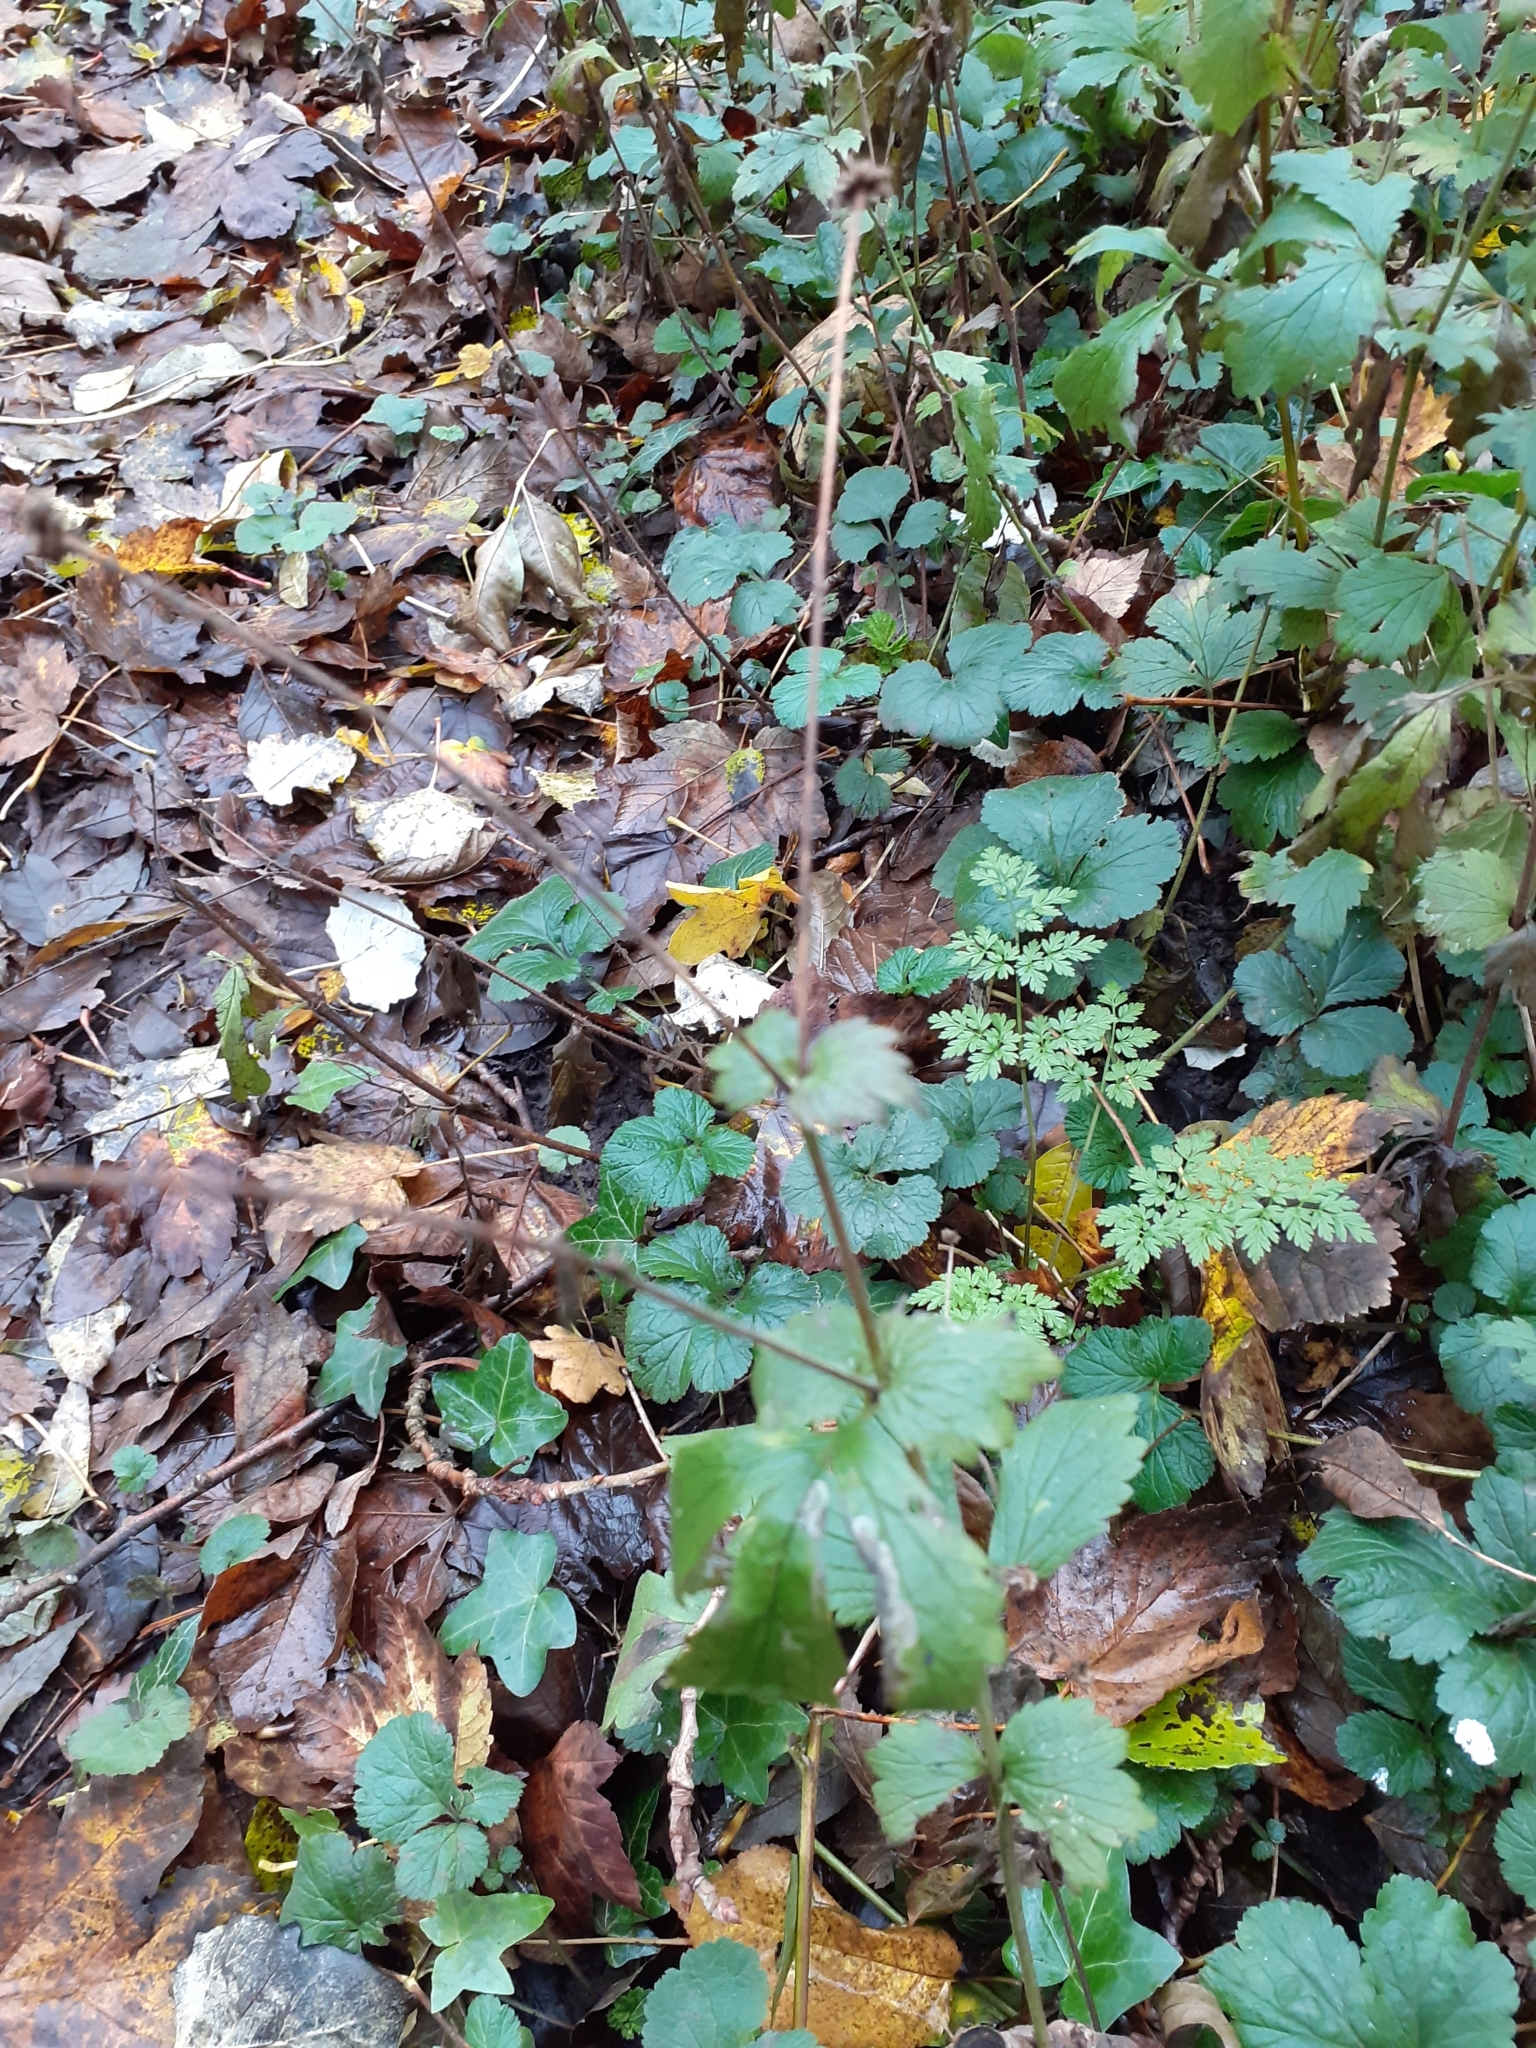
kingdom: Plantae
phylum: Tracheophyta
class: Magnoliopsida
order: Rosales
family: Rosaceae
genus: Geum
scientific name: Geum urbanum
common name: Wood avens
